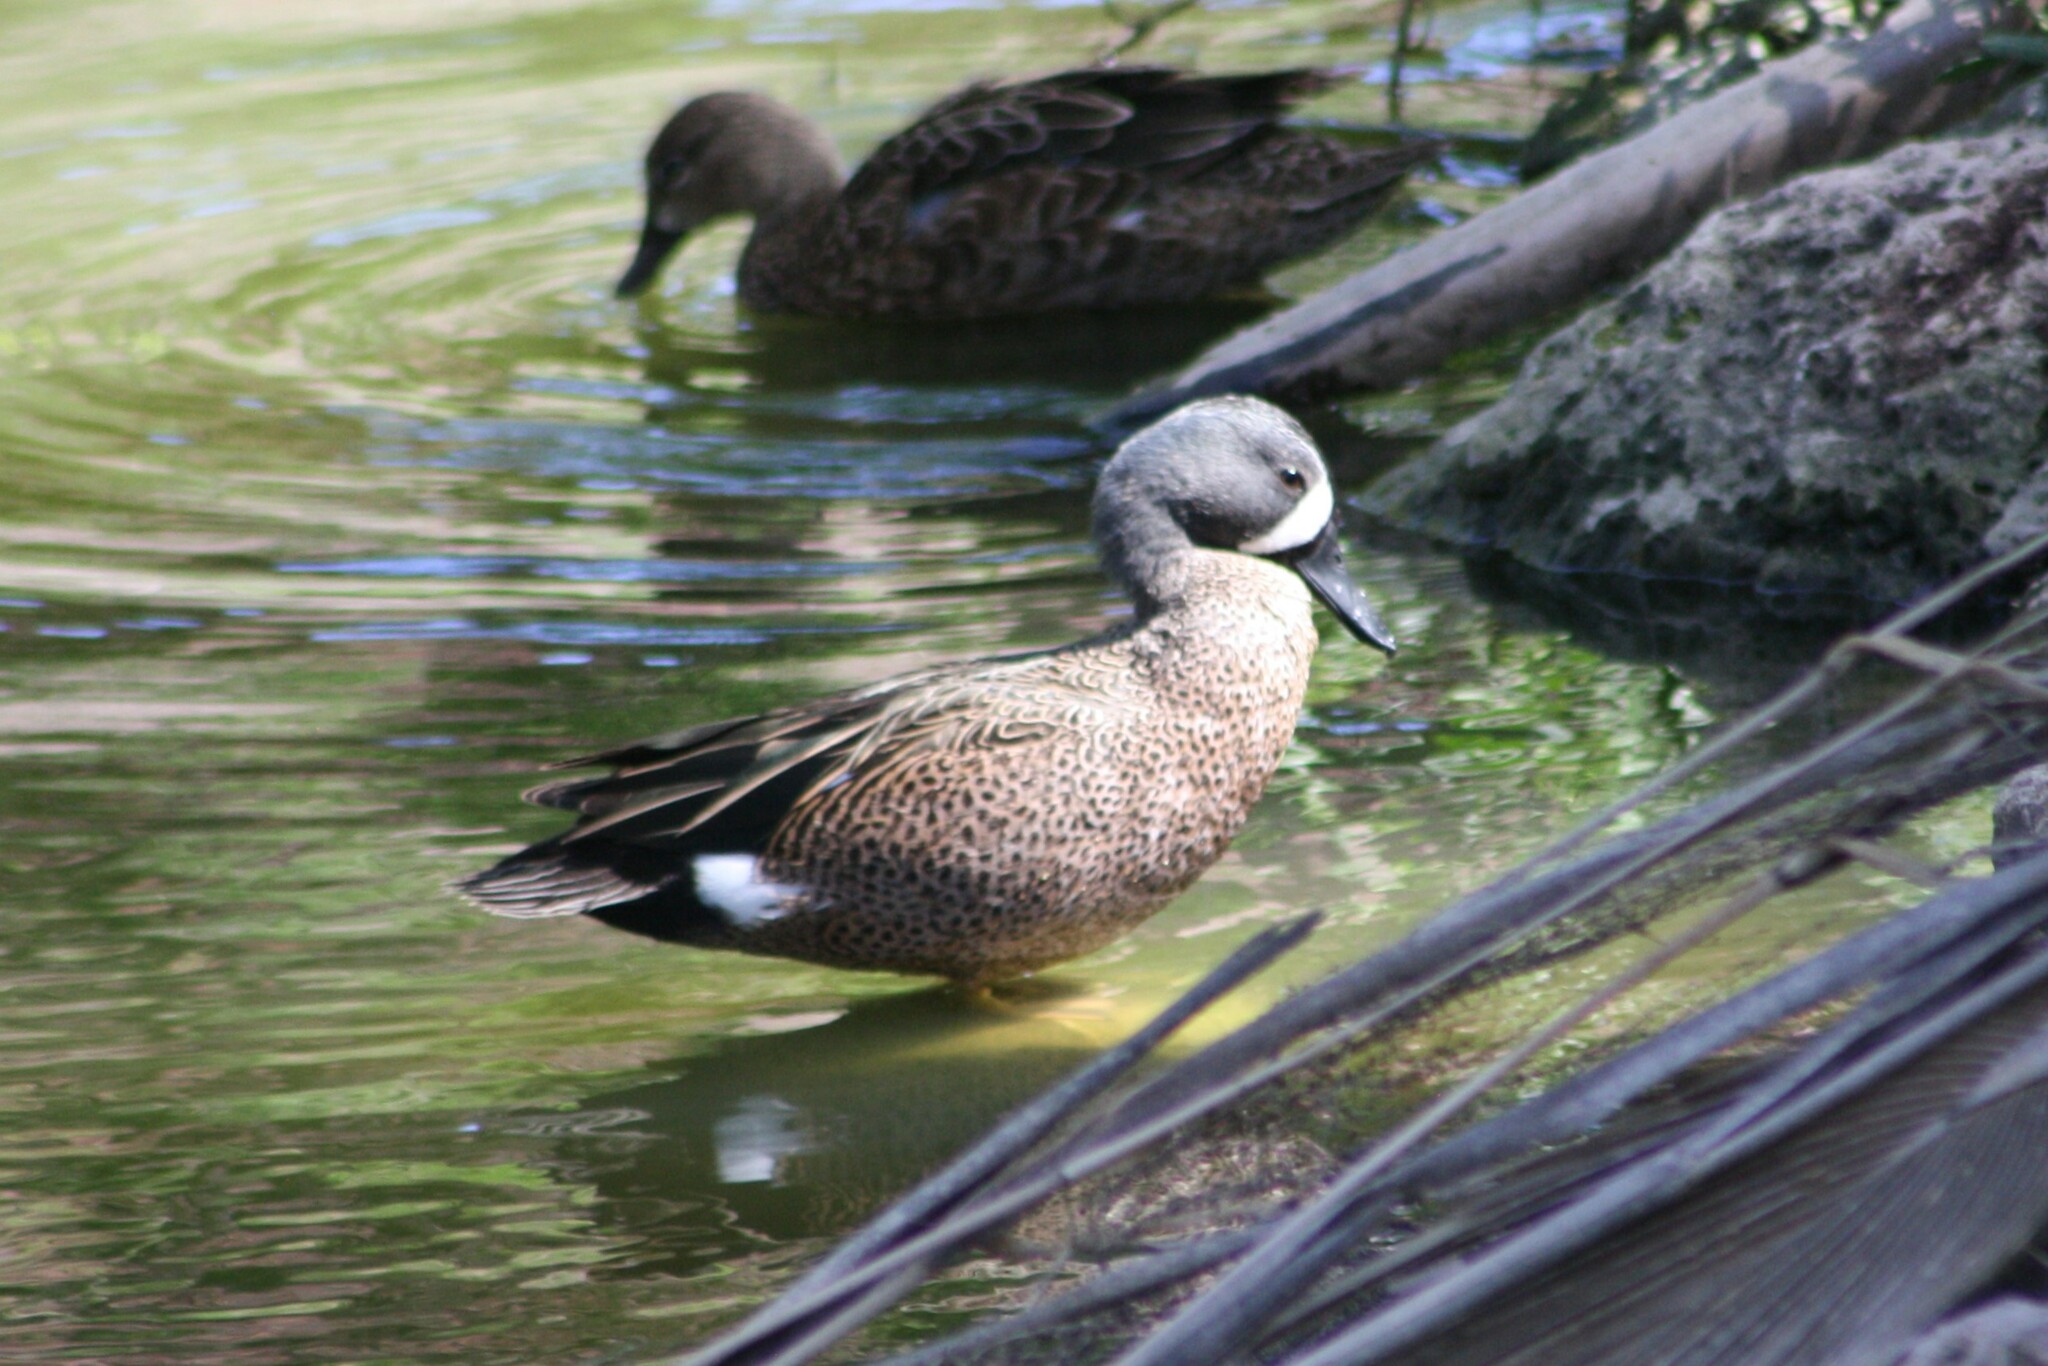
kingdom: Animalia
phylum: Chordata
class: Aves
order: Anseriformes
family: Anatidae
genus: Spatula
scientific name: Spatula discors
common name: Blue-winged teal
